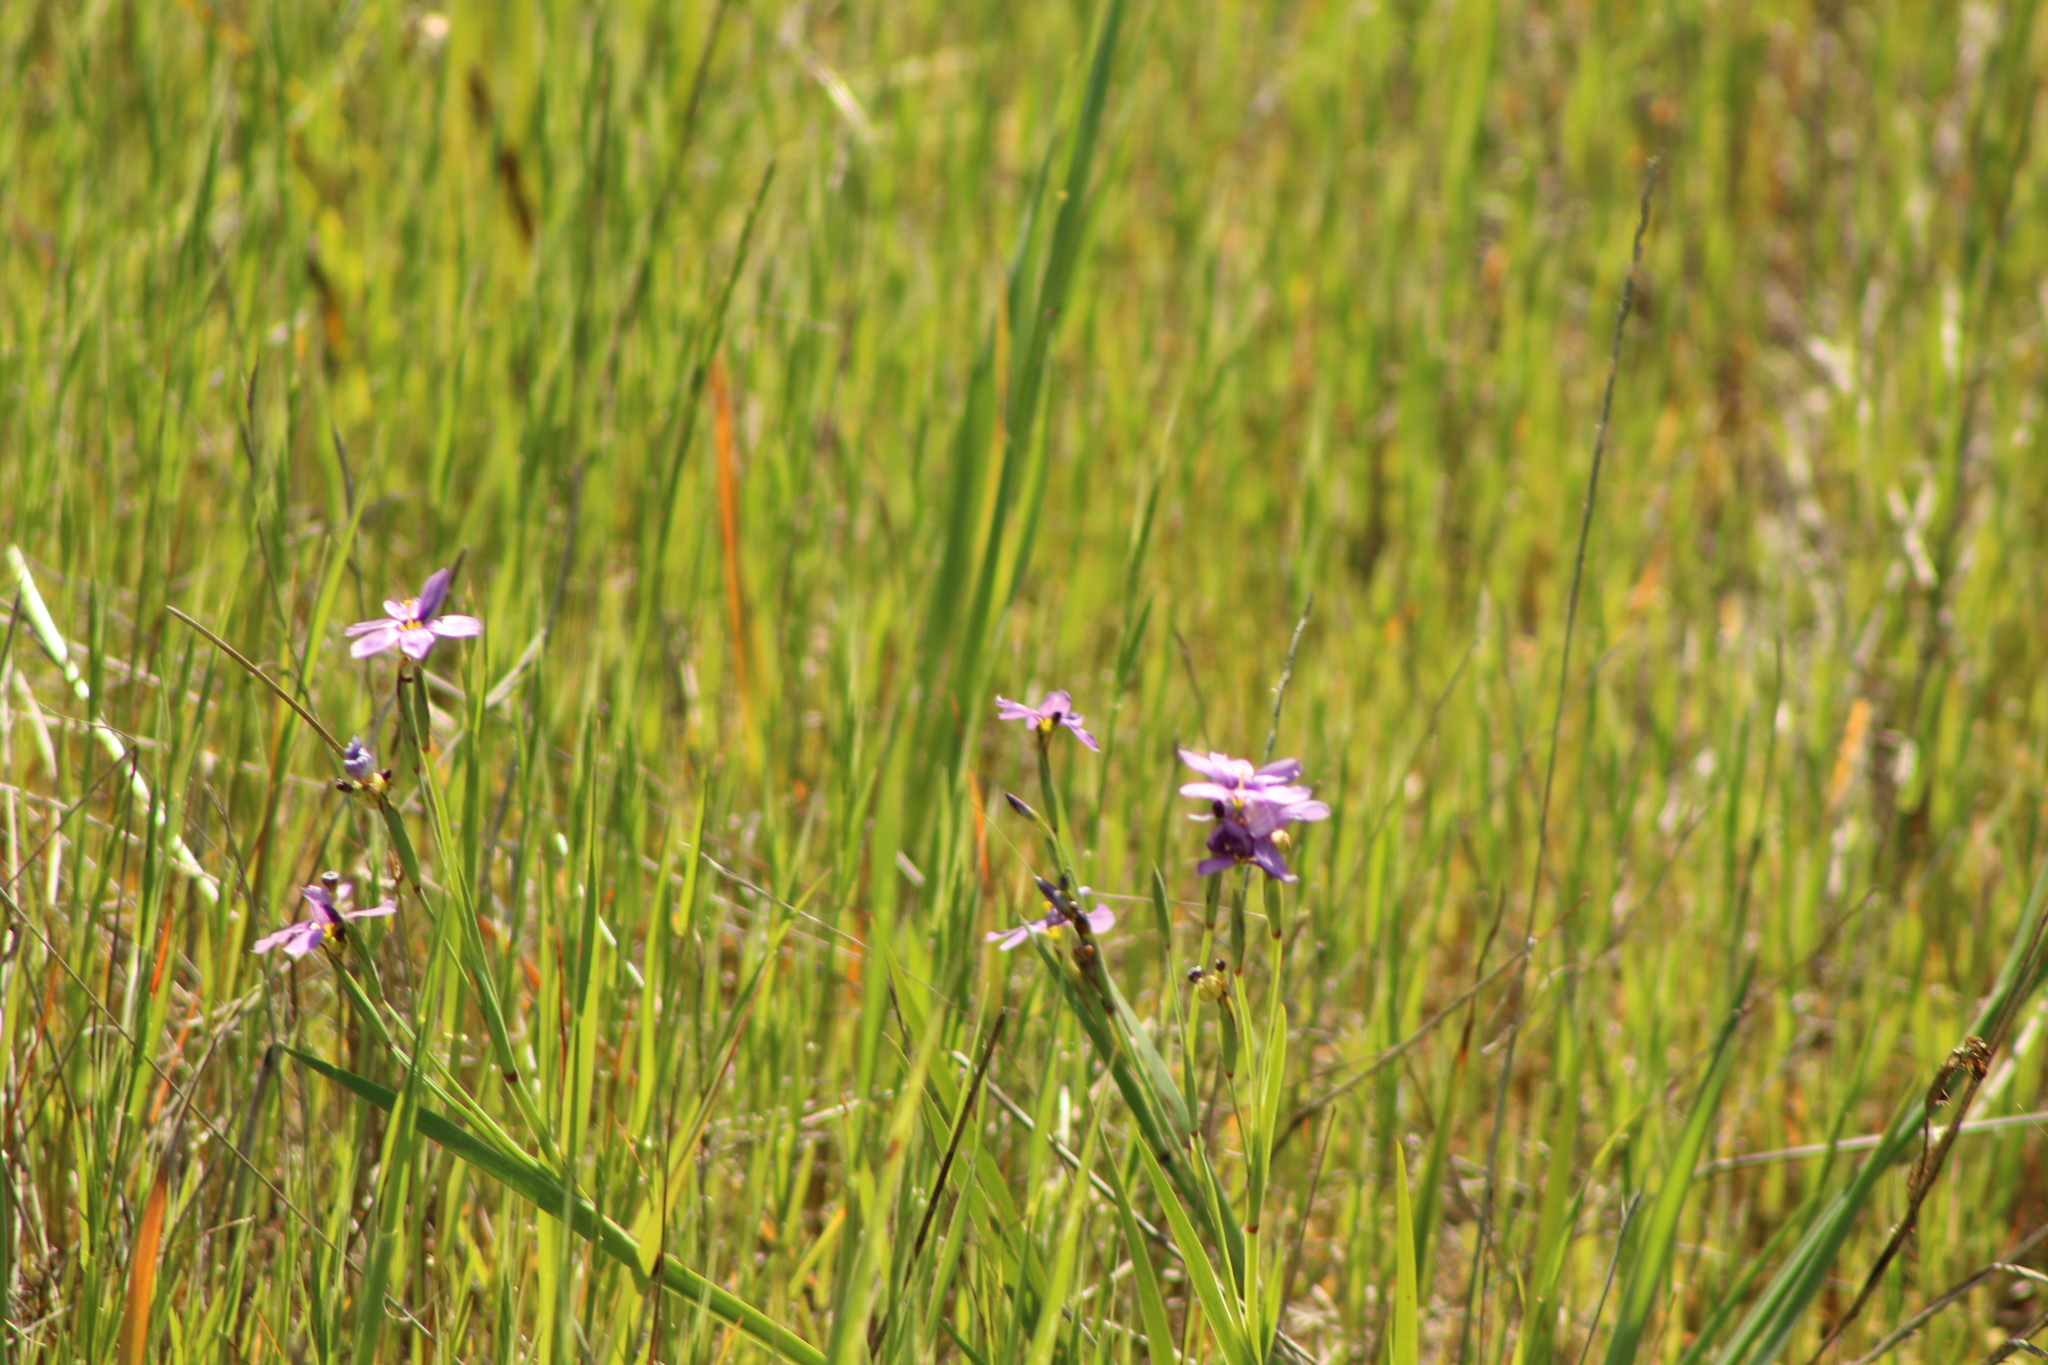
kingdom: Plantae
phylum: Tracheophyta
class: Liliopsida
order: Asparagales
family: Iridaceae
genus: Sisyrinchium
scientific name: Sisyrinchium bellum
